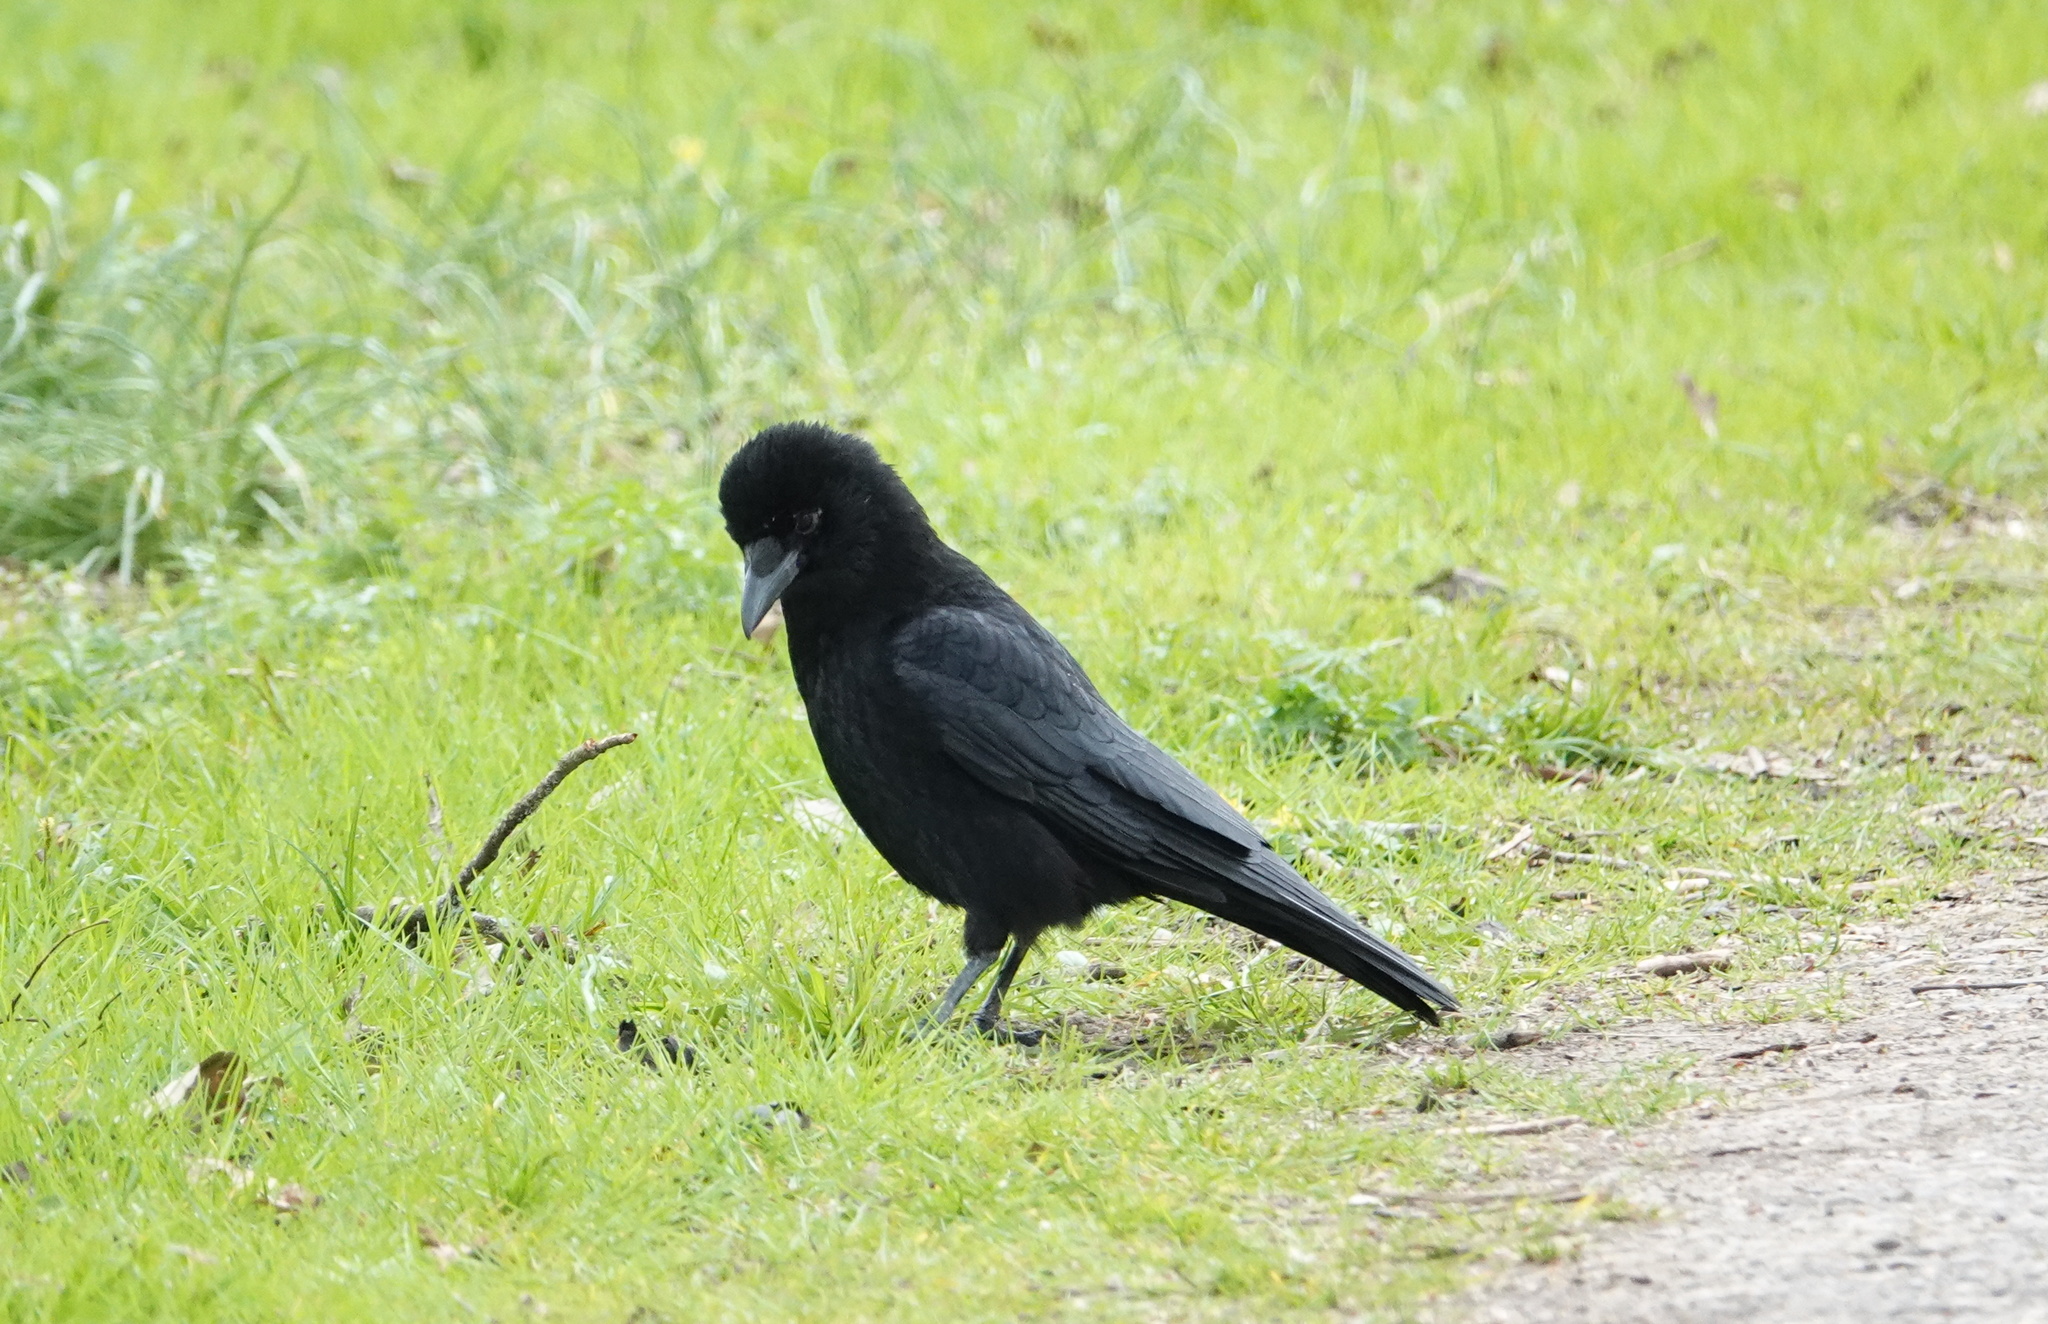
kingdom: Animalia
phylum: Chordata
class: Aves
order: Passeriformes
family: Corvidae
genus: Corvus
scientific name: Corvus corone
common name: Carrion crow
